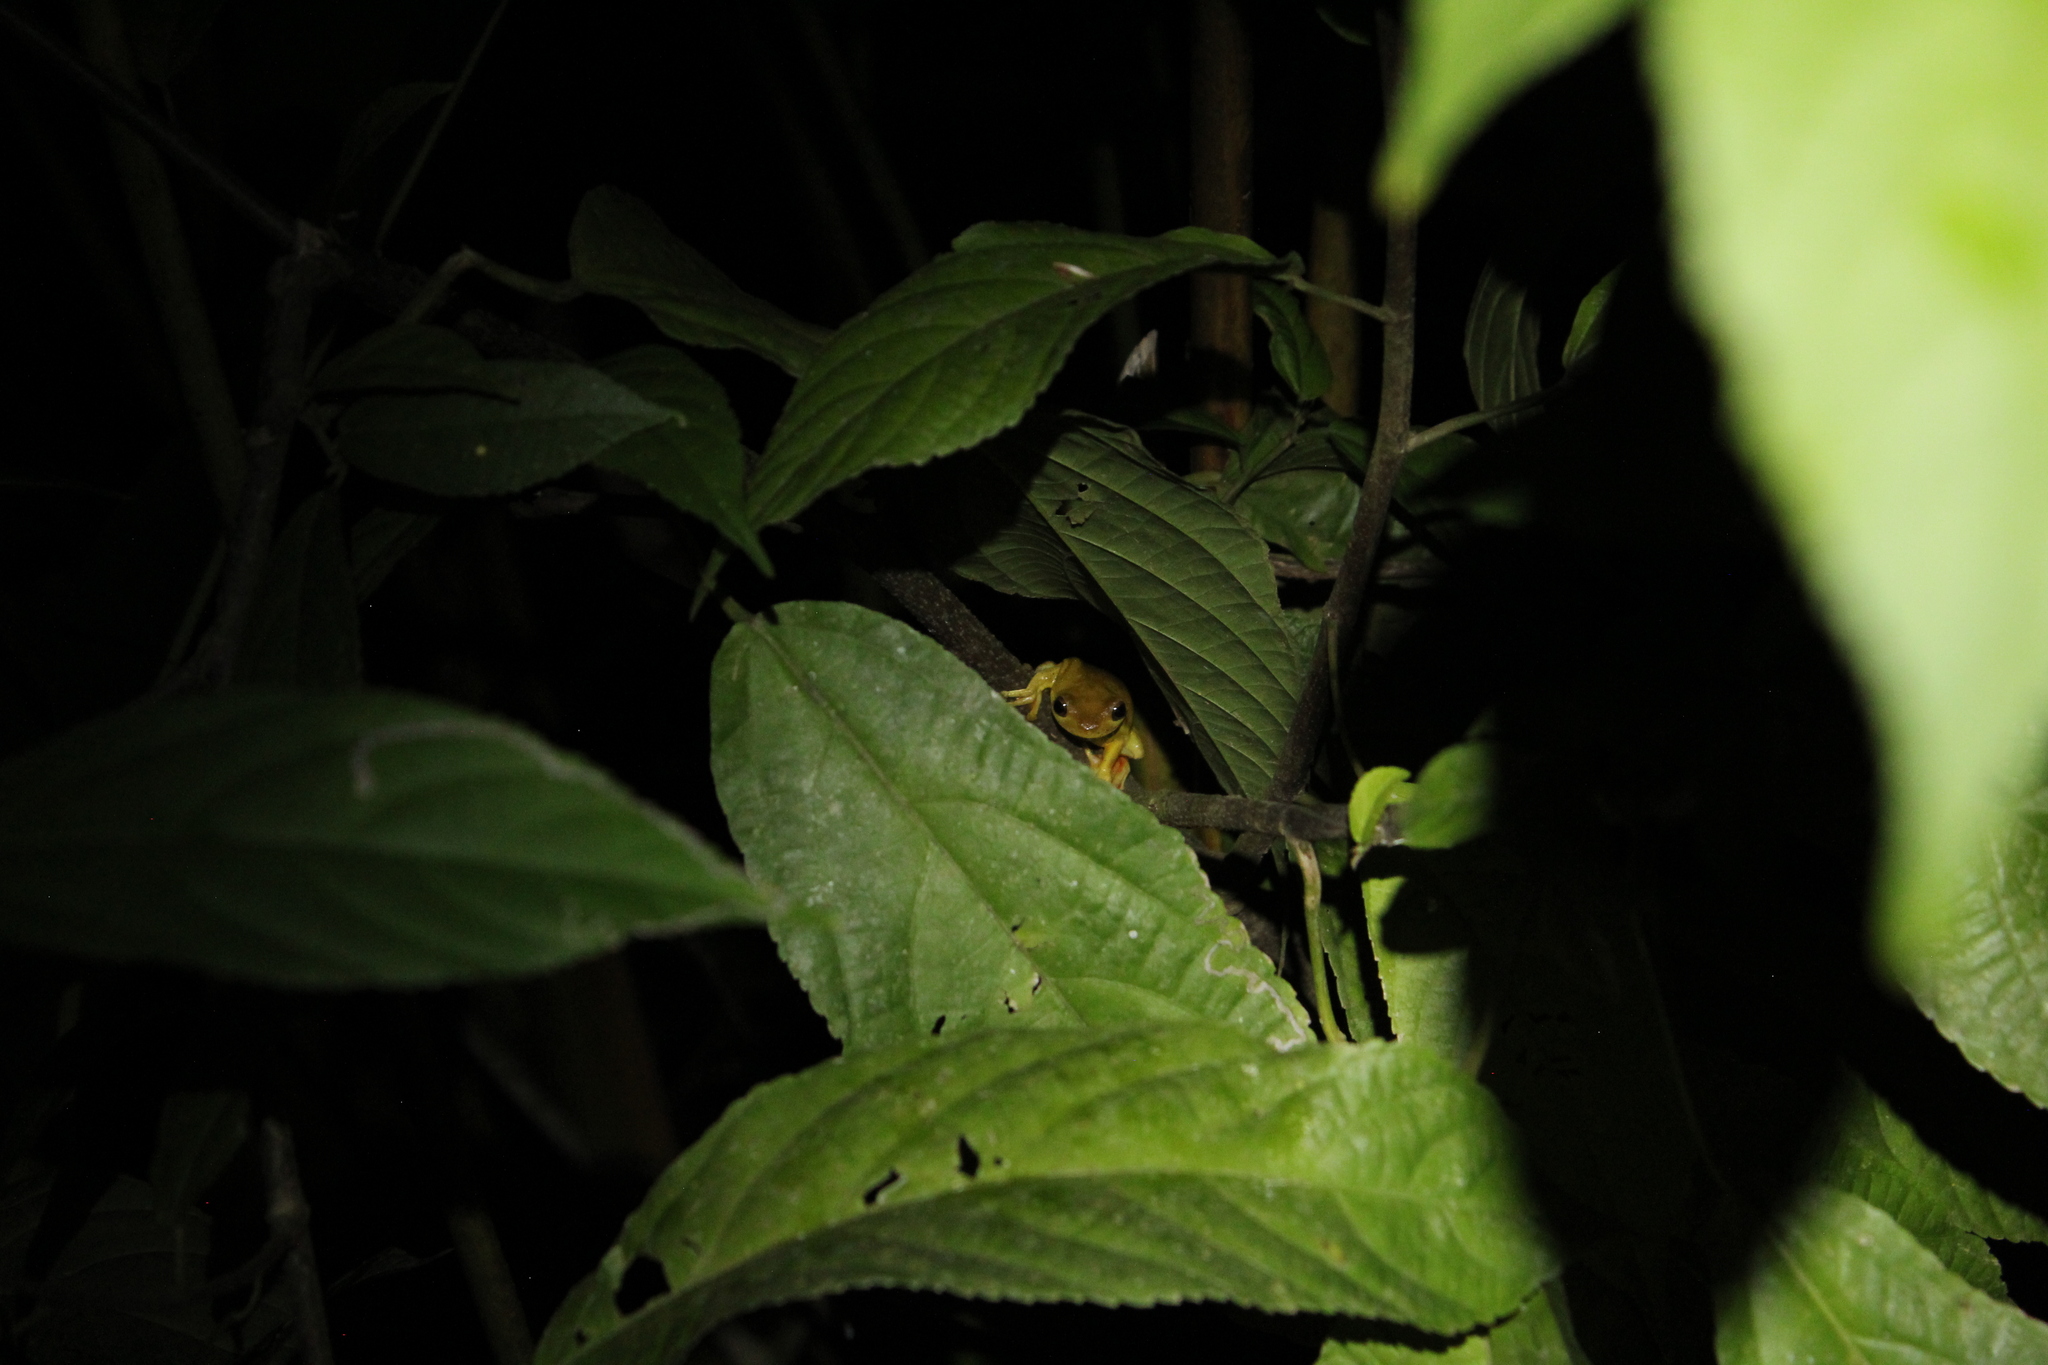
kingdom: Animalia
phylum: Chordata
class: Amphibia
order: Anura
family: Hylidae
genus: Tlalocohyla
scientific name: Tlalocohyla loquax
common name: Loquacious treefrog
